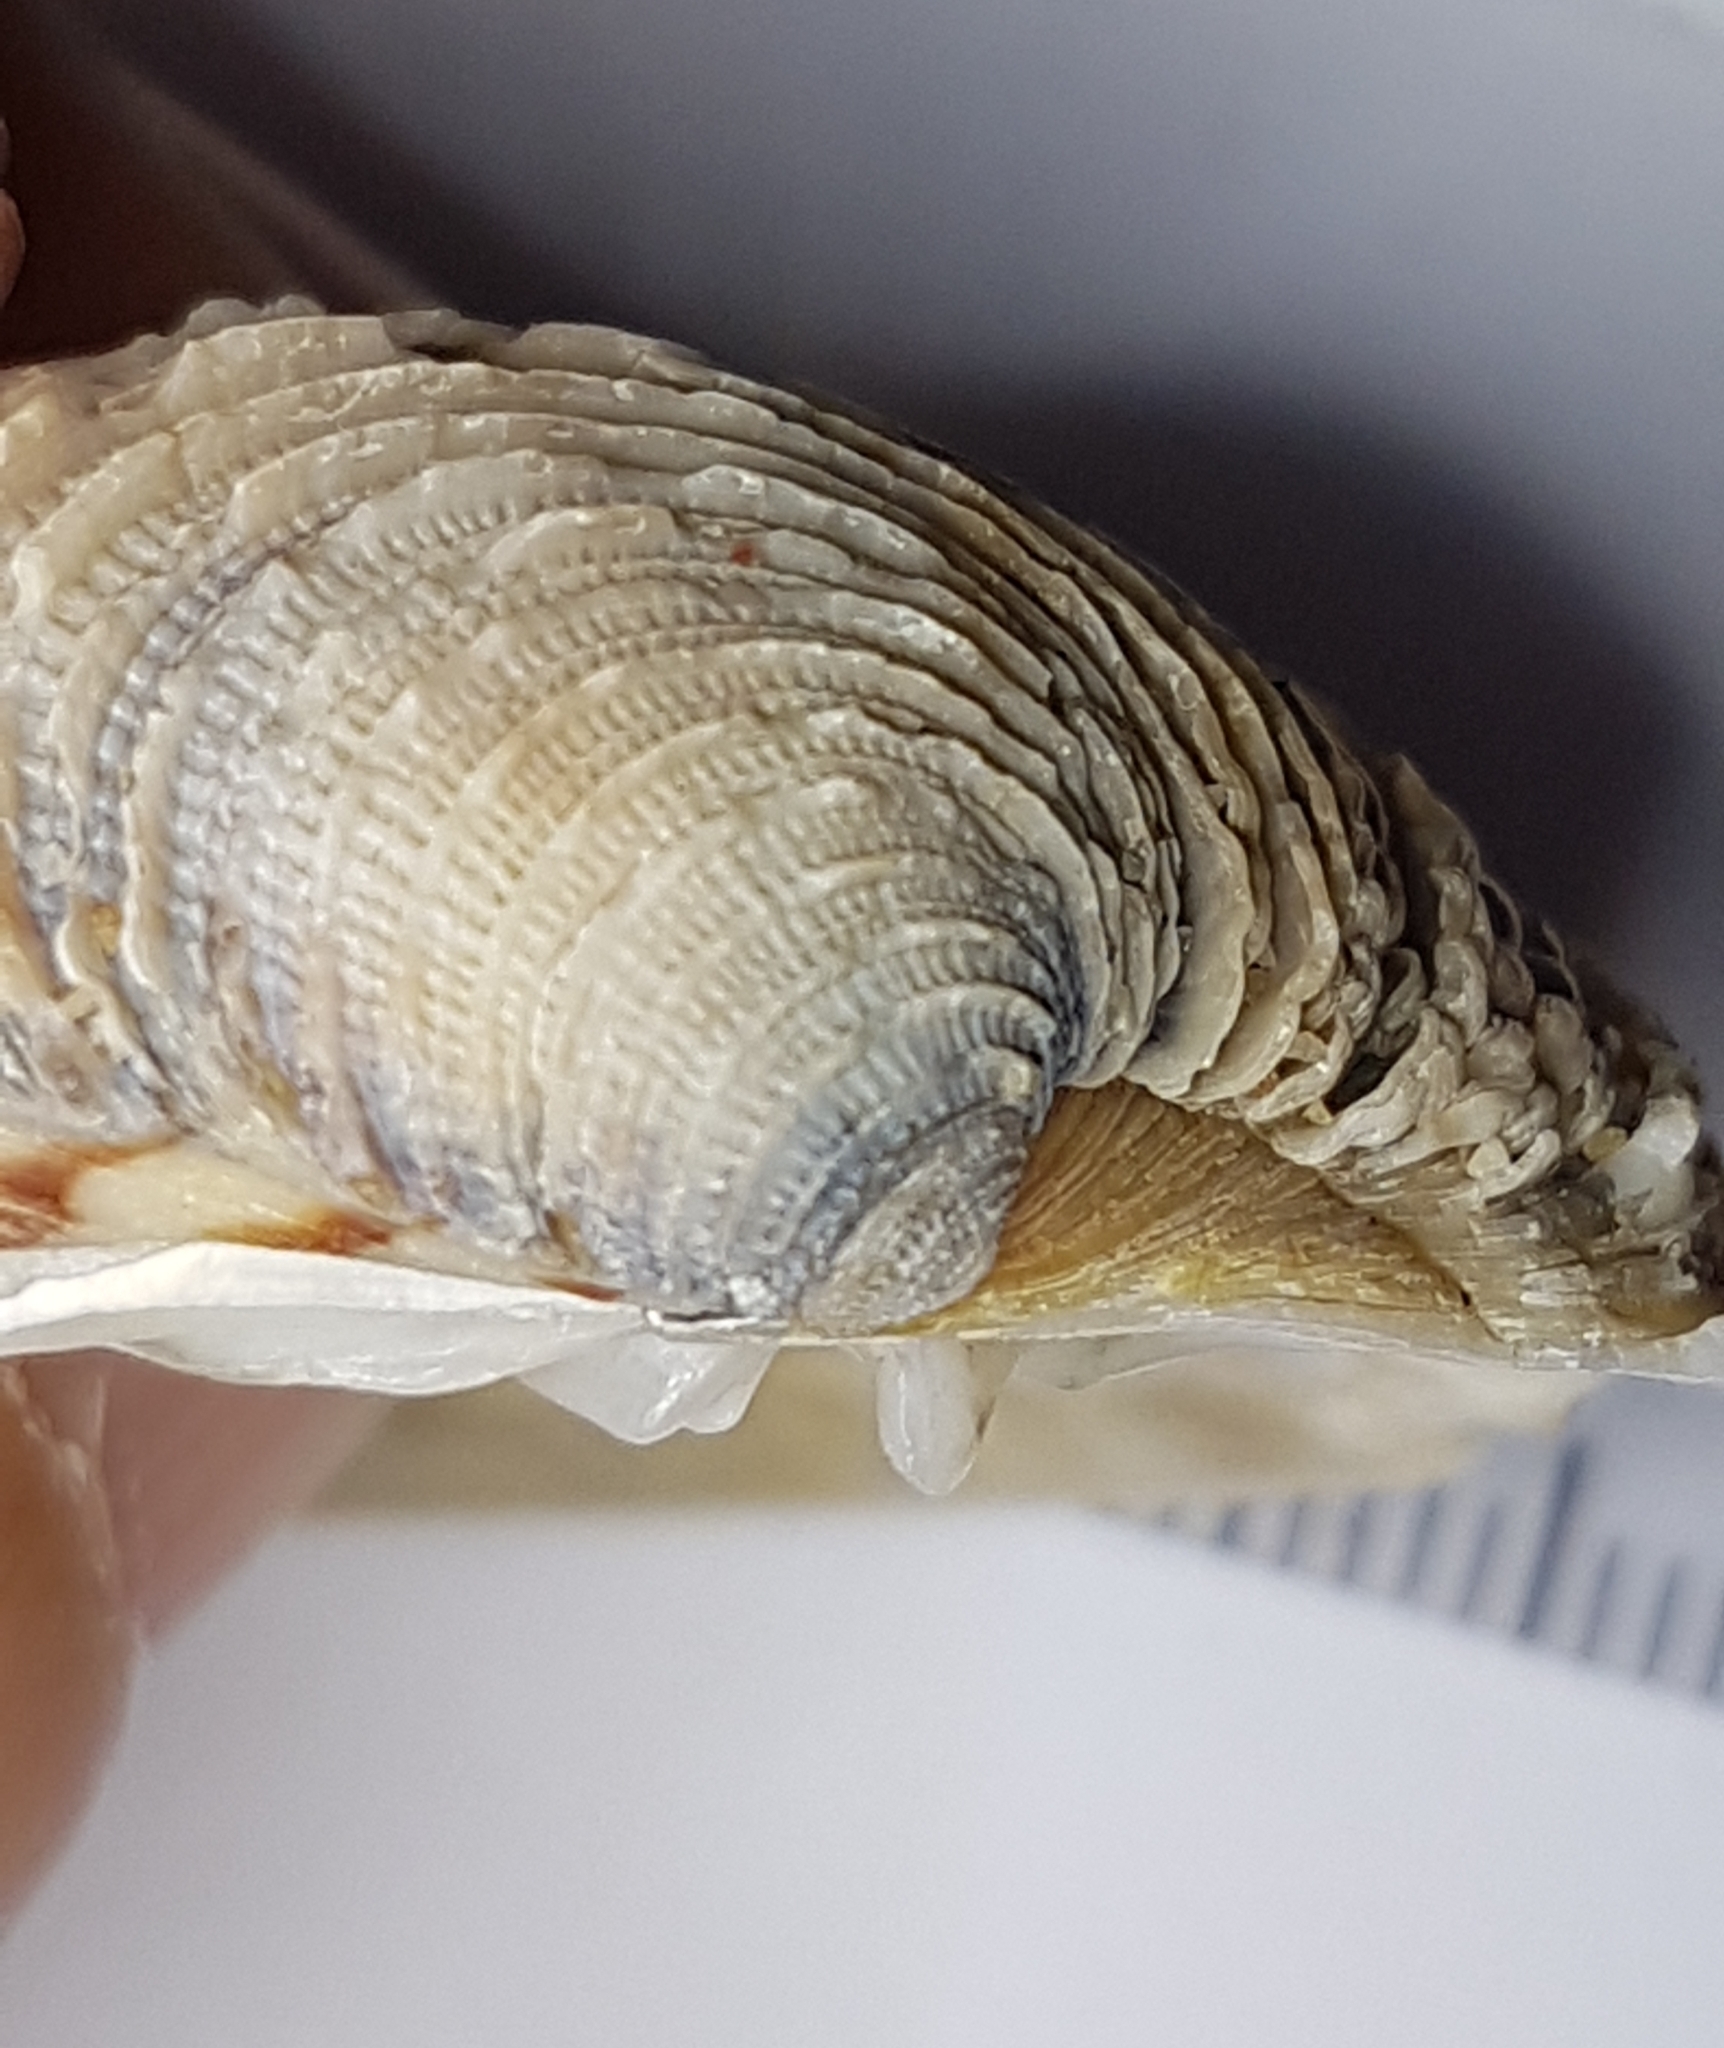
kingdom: Animalia
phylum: Mollusca
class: Bivalvia
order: Venerida
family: Veneridae
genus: Venus
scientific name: Venus verrucosa
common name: Warty venus
